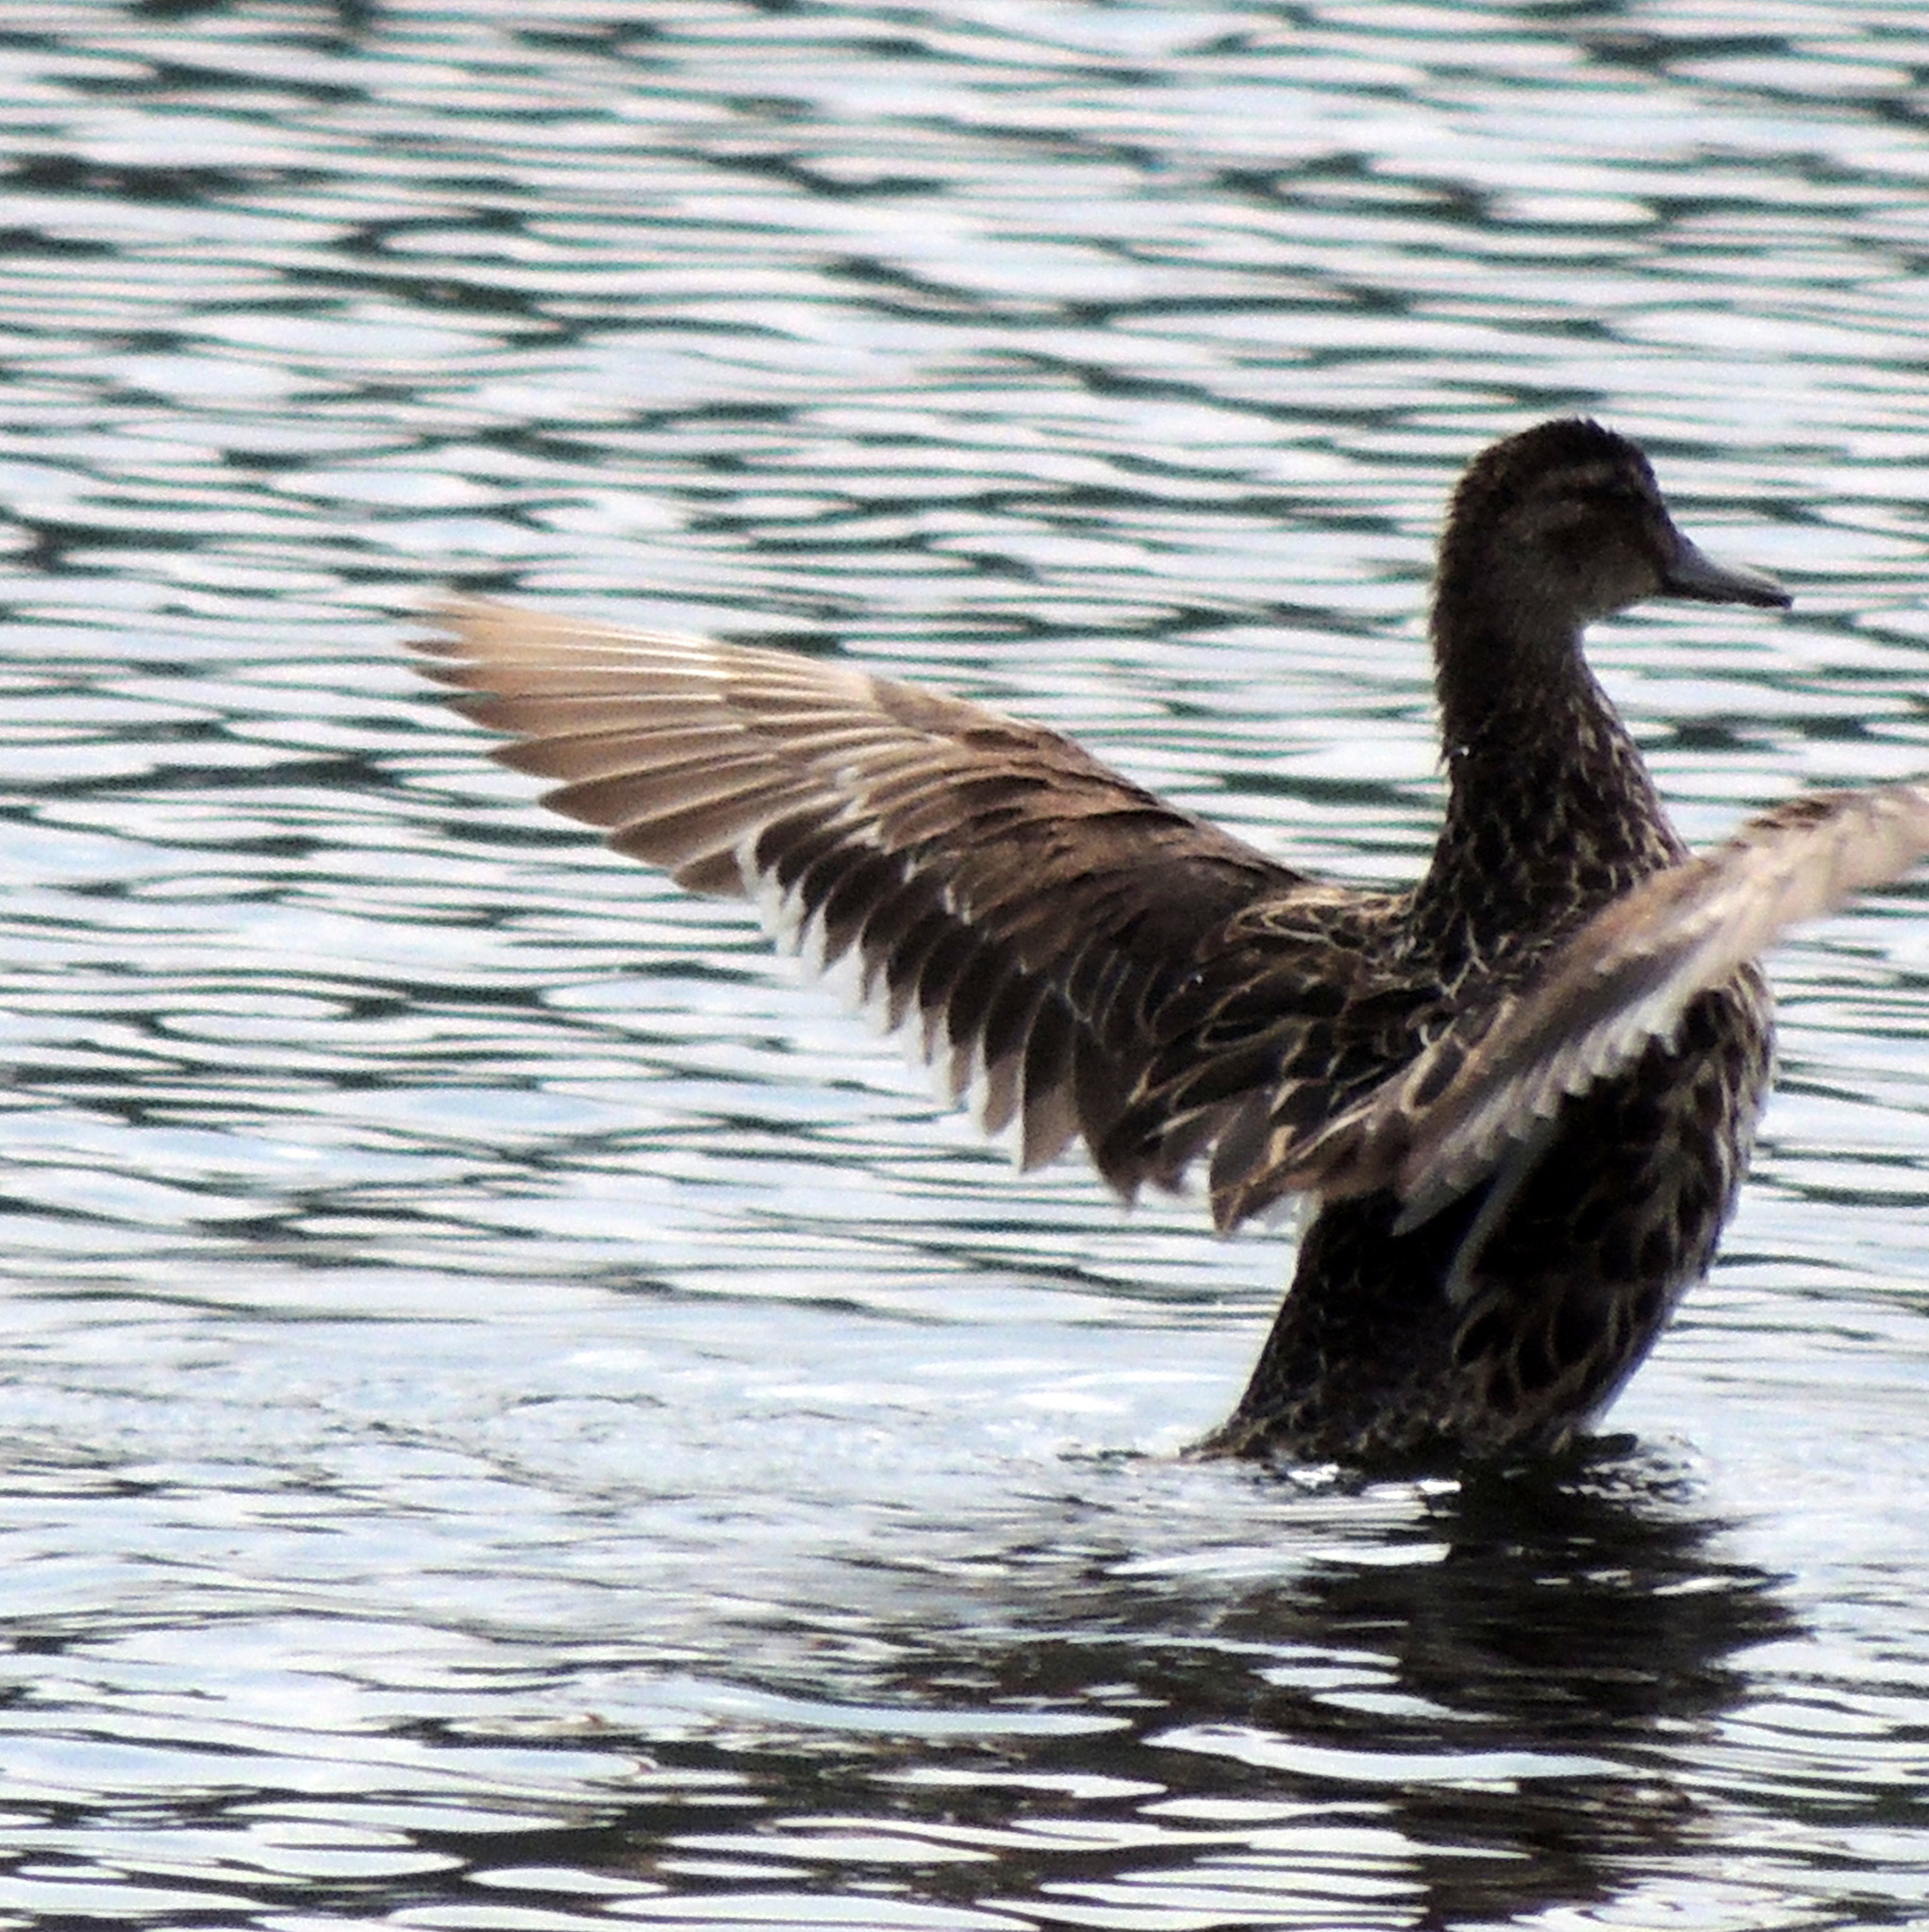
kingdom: Animalia
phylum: Chordata
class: Aves
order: Anseriformes
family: Anatidae
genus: Spatula
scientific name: Spatula querquedula
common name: Garganey
